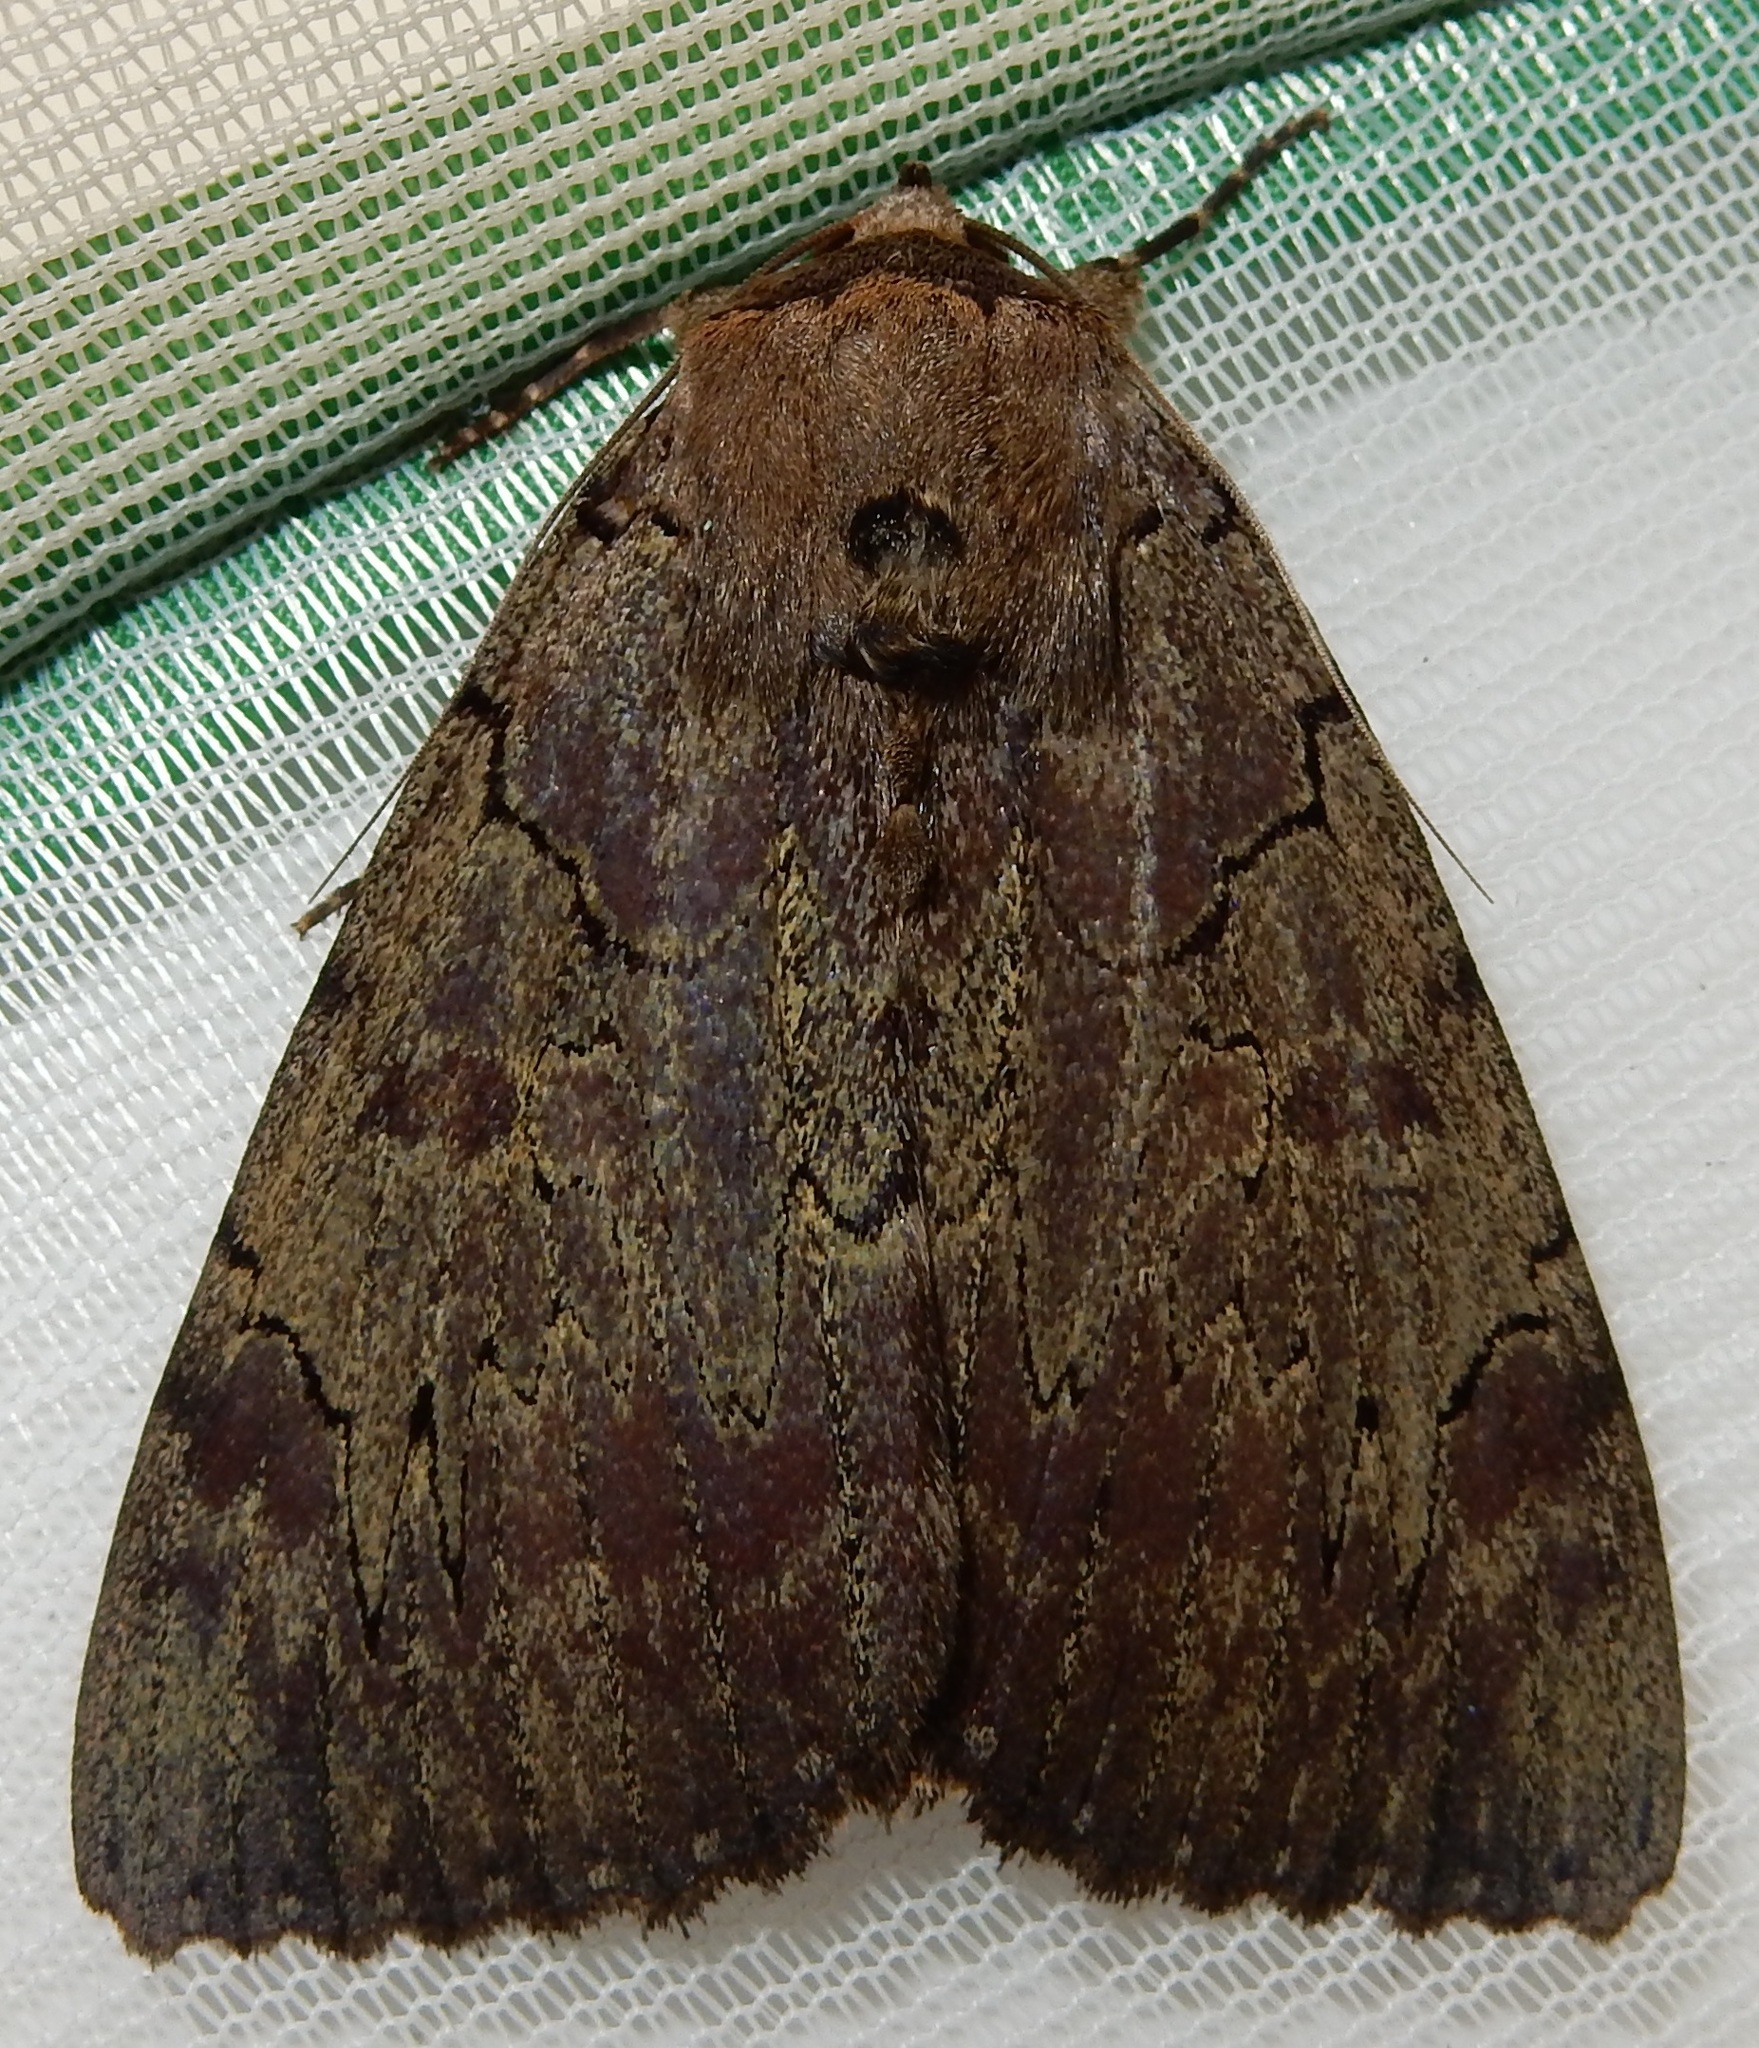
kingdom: Animalia
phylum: Arthropoda
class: Insecta
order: Lepidoptera
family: Erebidae
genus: Catocala
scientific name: Catocala cara
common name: Darling underwing
